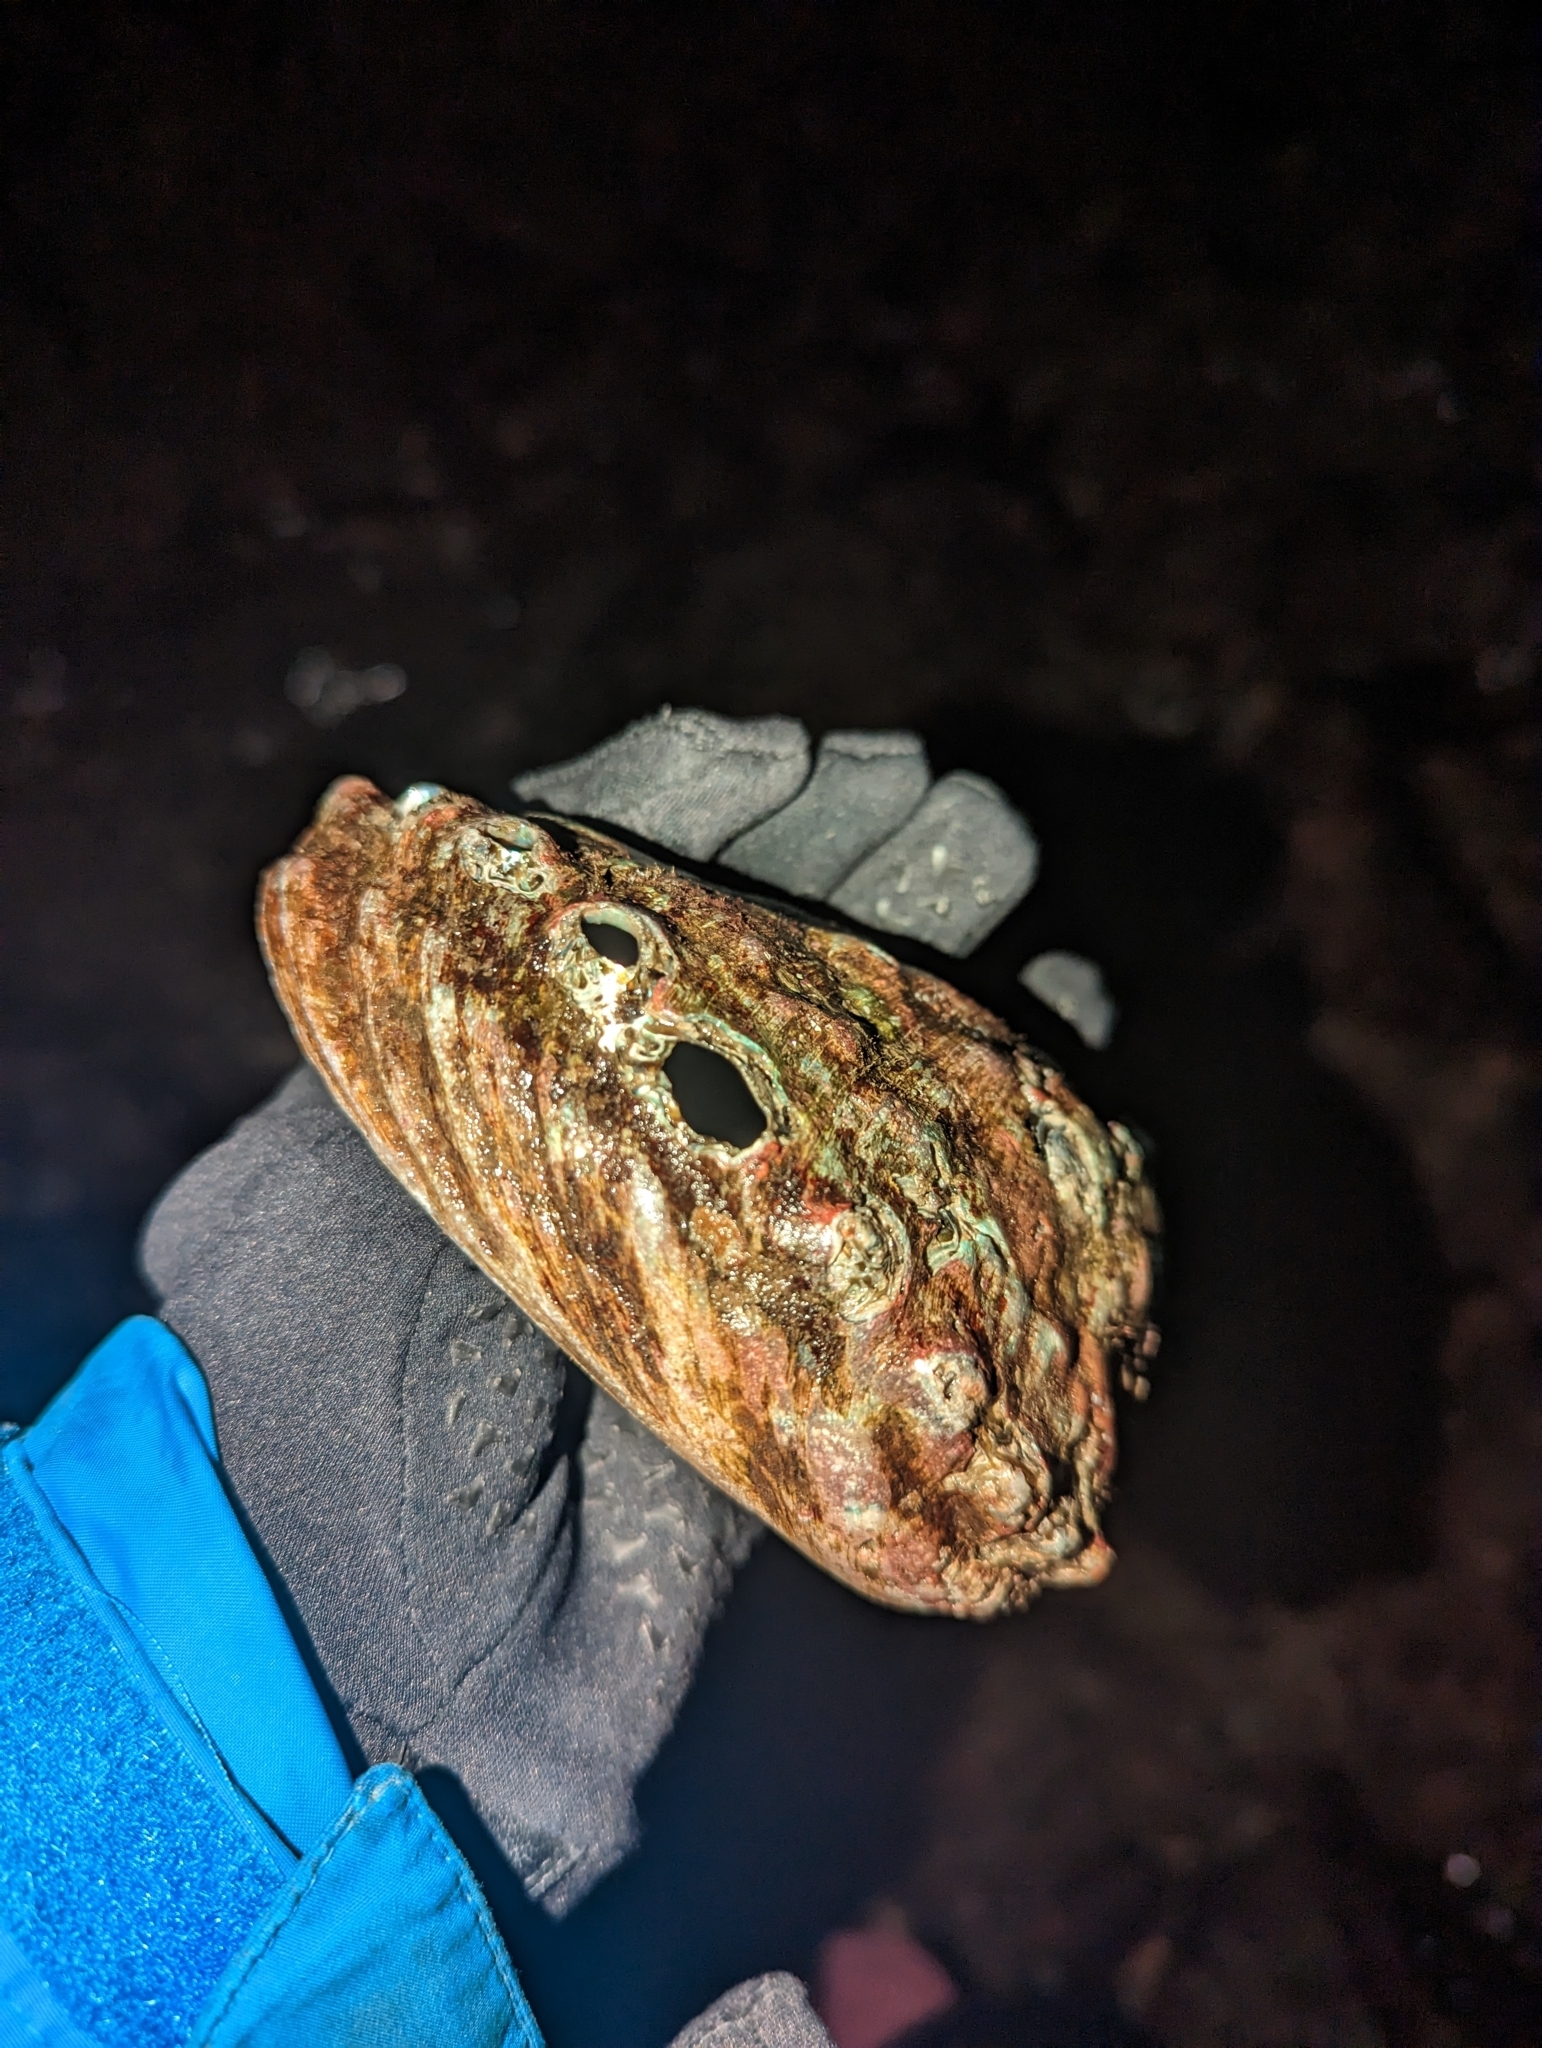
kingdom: Animalia
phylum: Mollusca
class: Gastropoda
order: Lepetellida
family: Haliotidae
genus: Haliotis
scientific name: Haliotis kamtschatkana
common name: Pinto abalone
